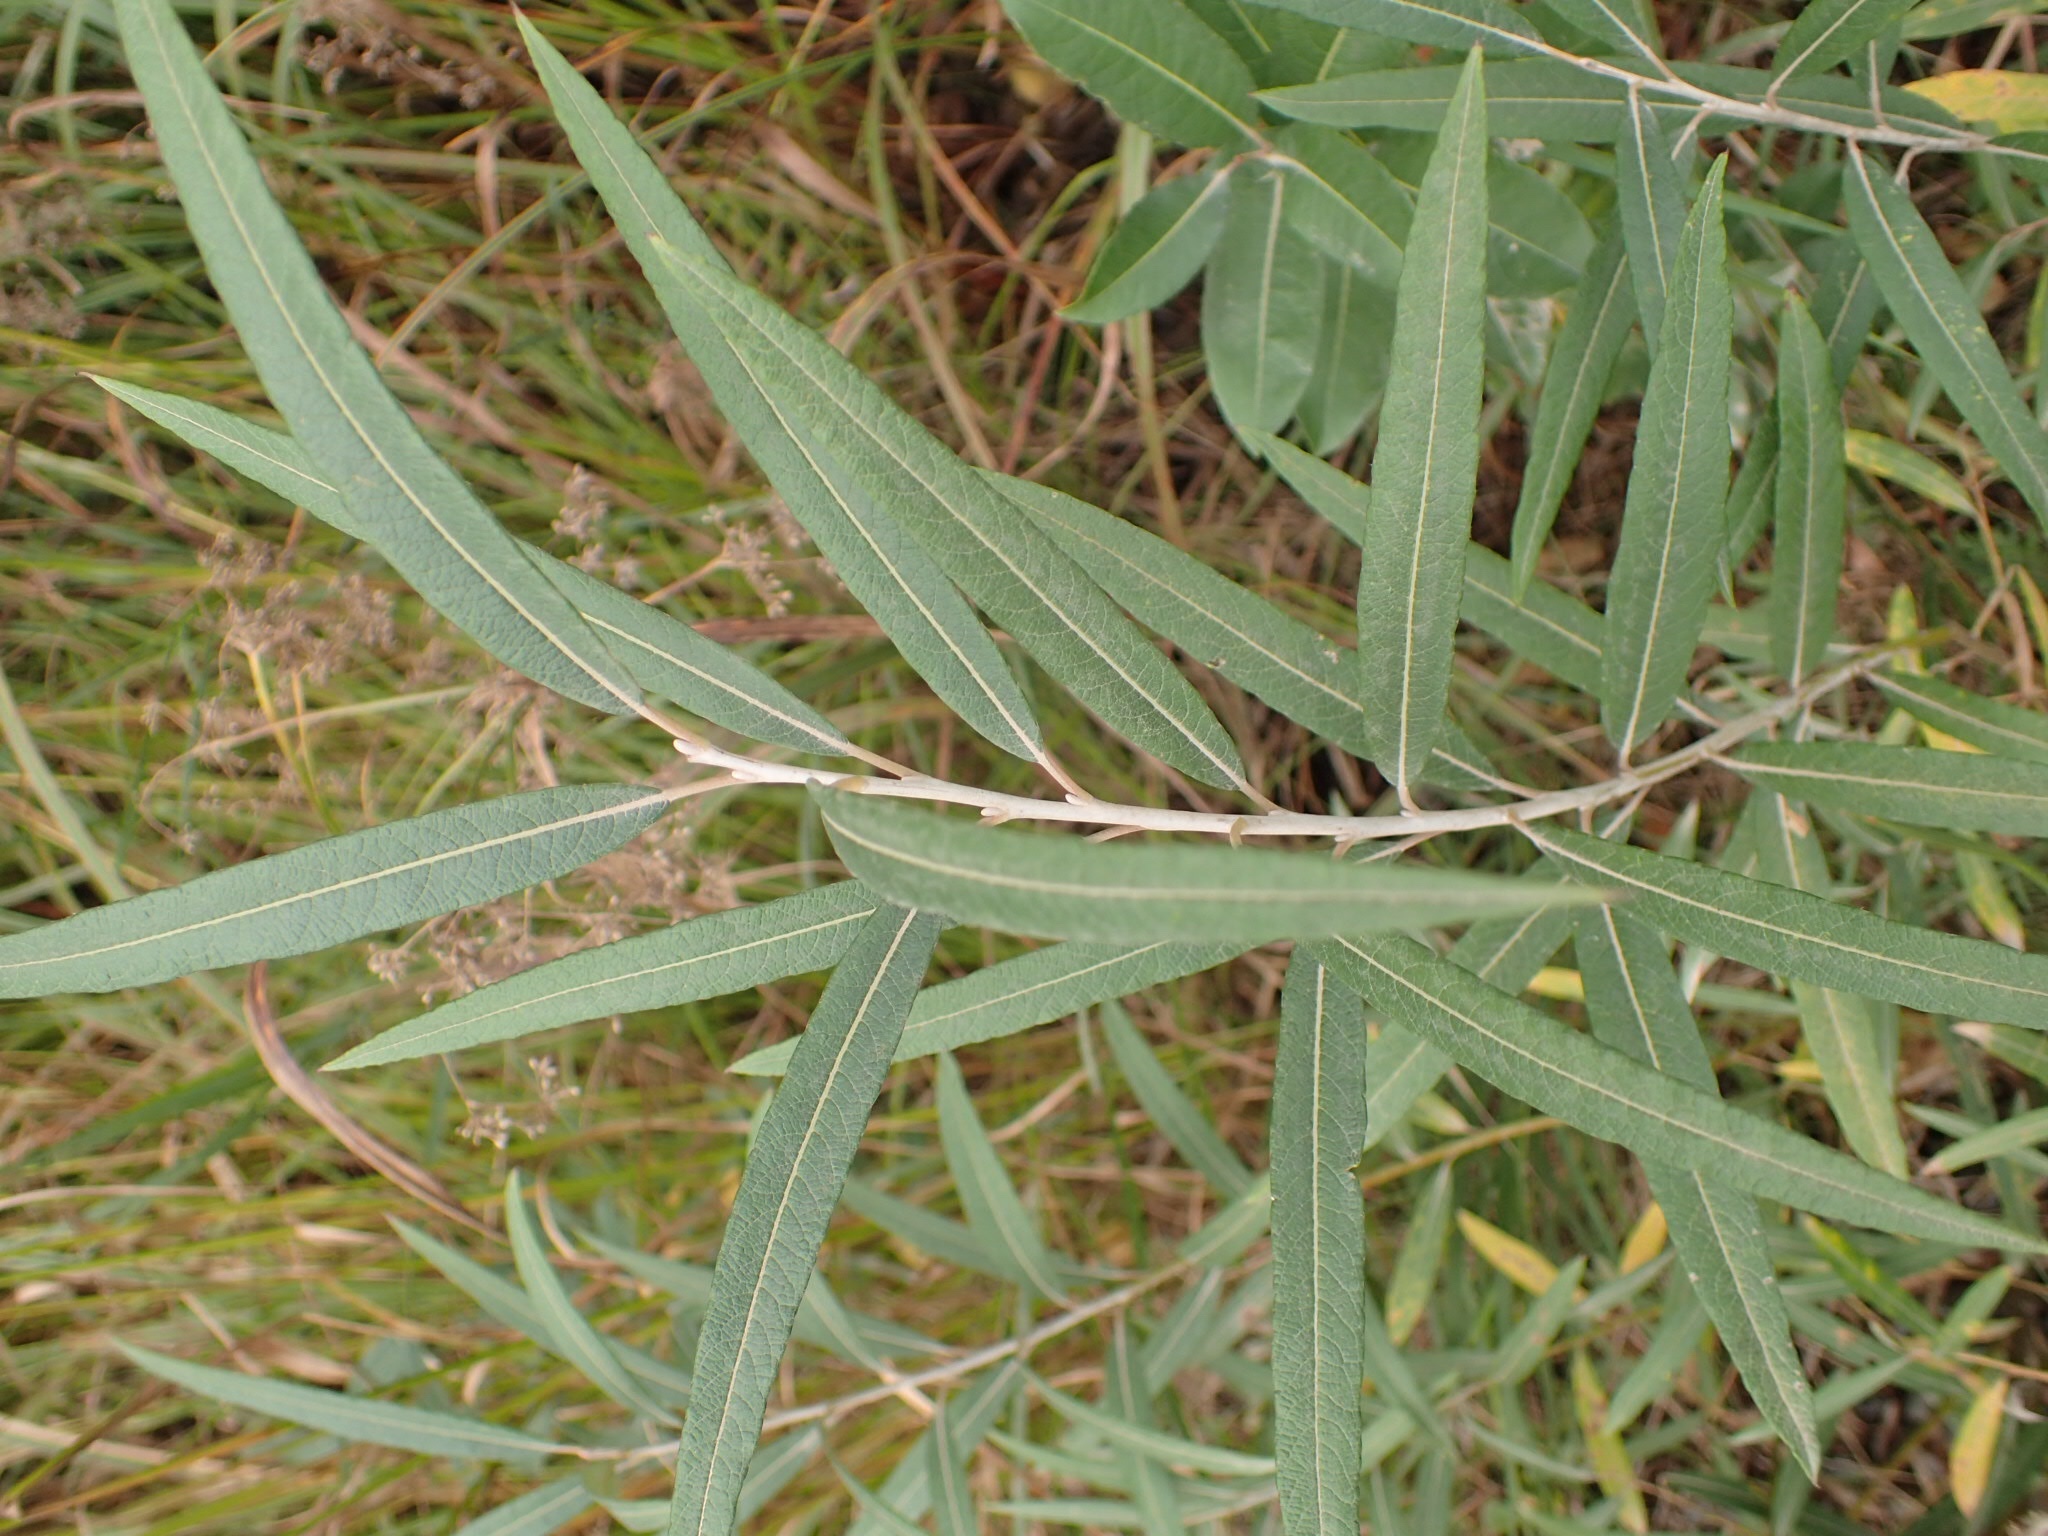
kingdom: Plantae
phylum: Tracheophyta
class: Magnoliopsida
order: Malpighiales
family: Salicaceae
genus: Salix
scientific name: Salix candida
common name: Hoary willow
